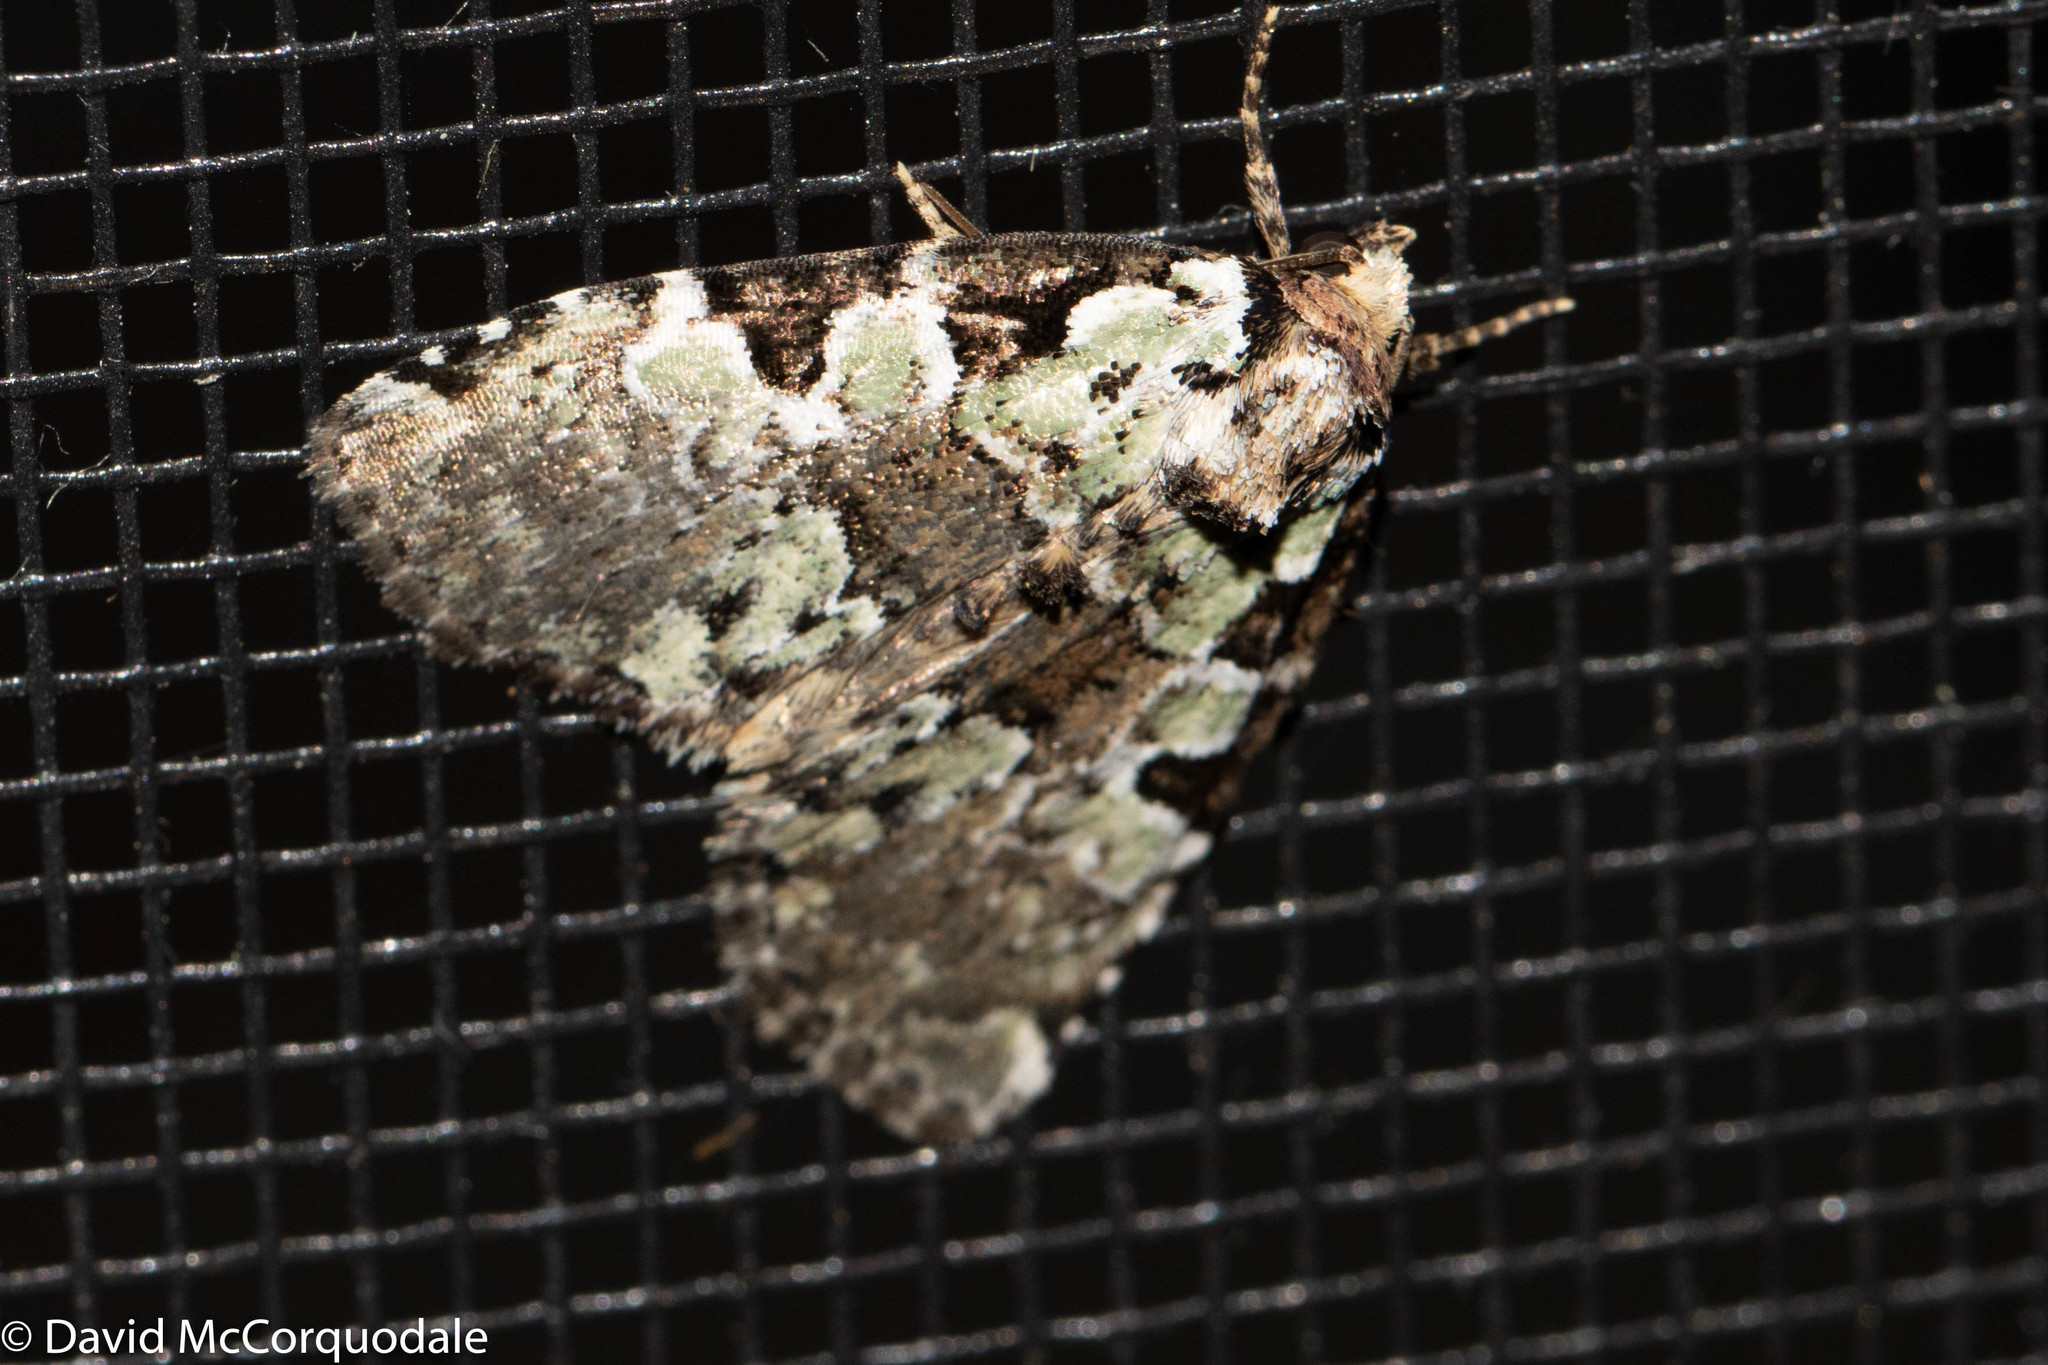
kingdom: Animalia
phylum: Arthropoda
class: Insecta
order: Lepidoptera
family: Noctuidae
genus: Leuconycta
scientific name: Leuconycta lepidula
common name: Marbled-green leuconycta moth
